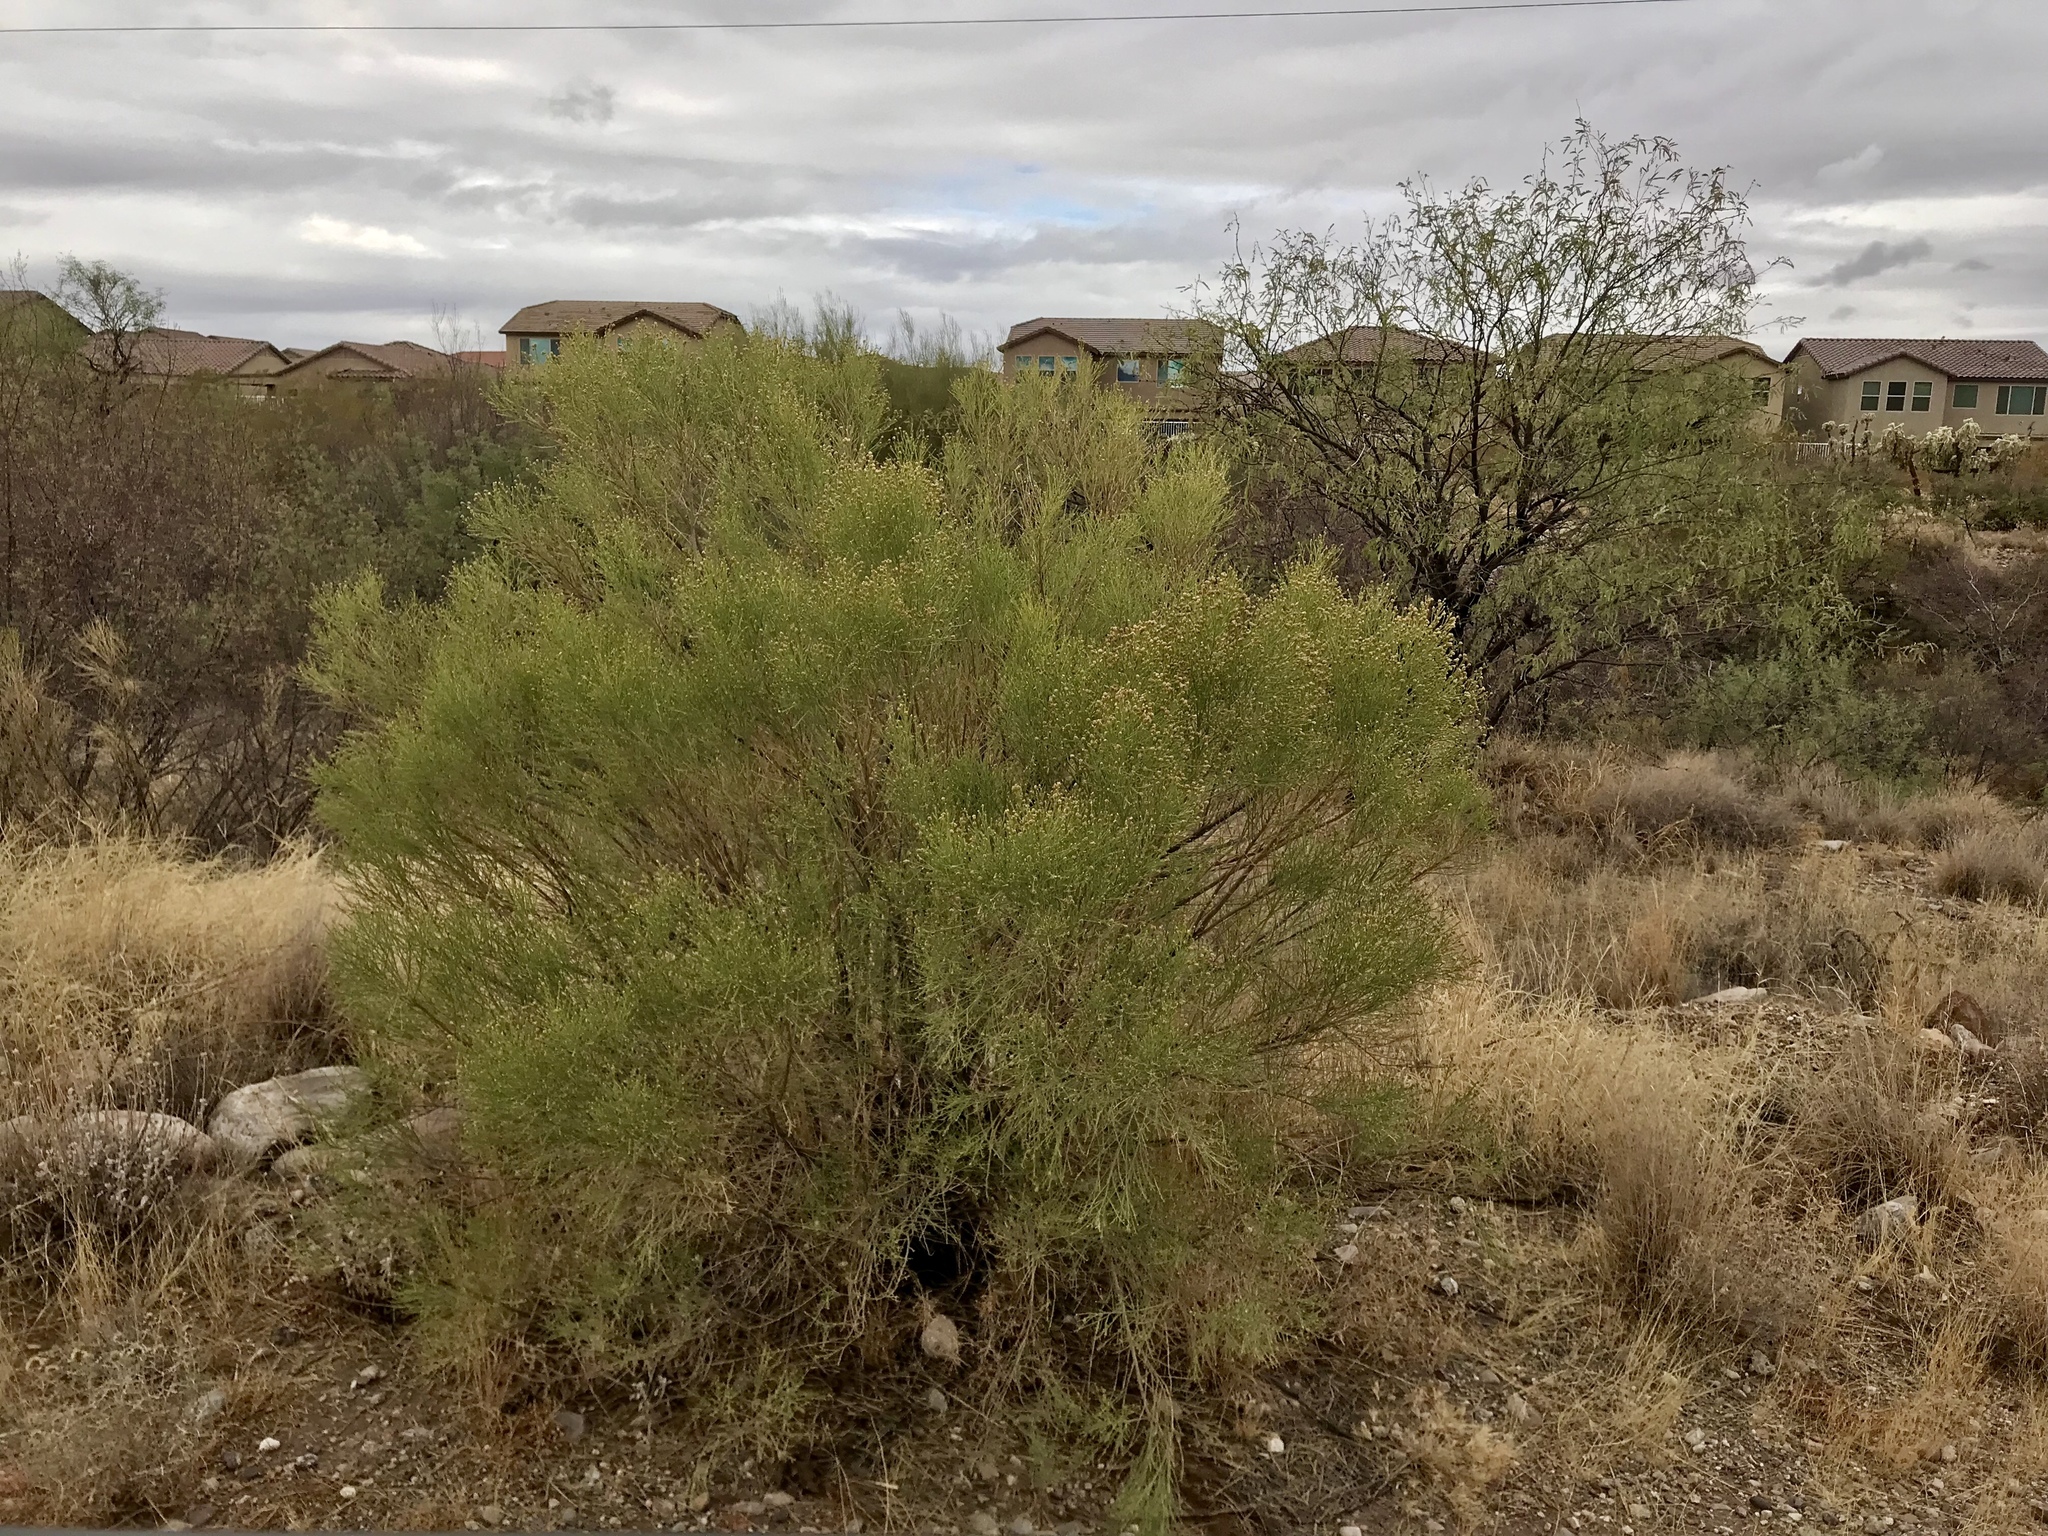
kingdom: Plantae
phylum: Tracheophyta
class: Magnoliopsida
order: Asterales
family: Asteraceae
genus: Baccharis
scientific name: Baccharis sarothroides
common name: Desert-broom
